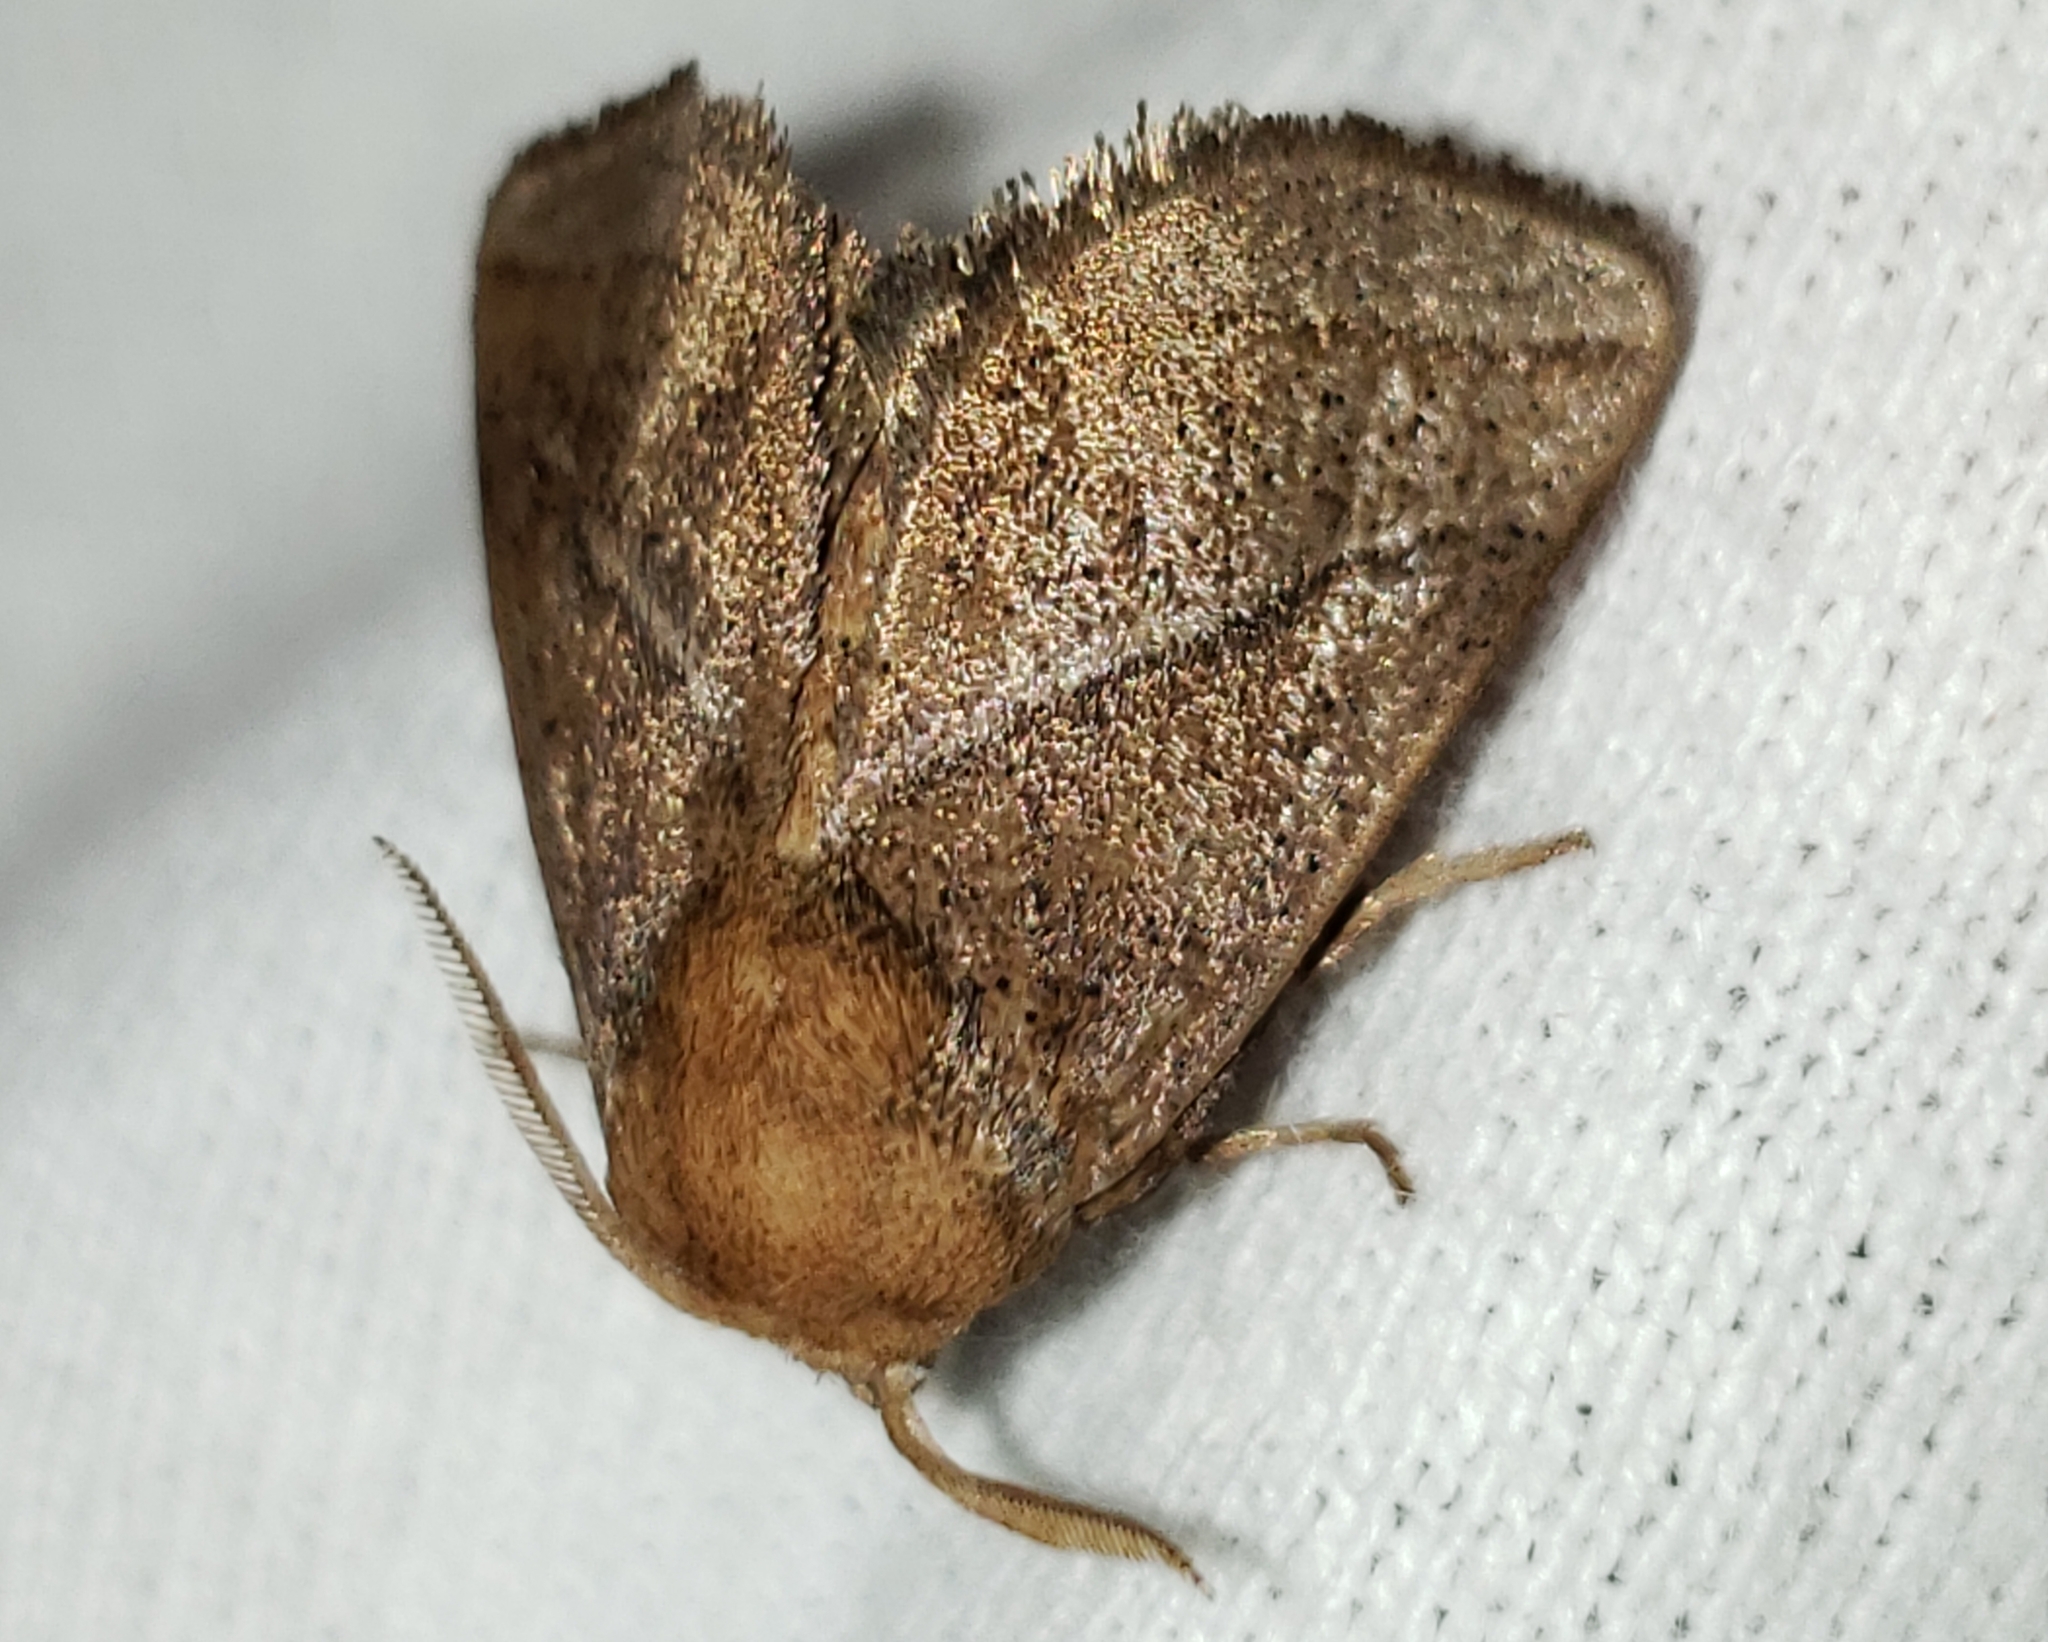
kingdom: Animalia
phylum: Arthropoda
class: Insecta
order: Lepidoptera
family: Limacodidae
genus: Natada
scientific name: Natada nasoni
